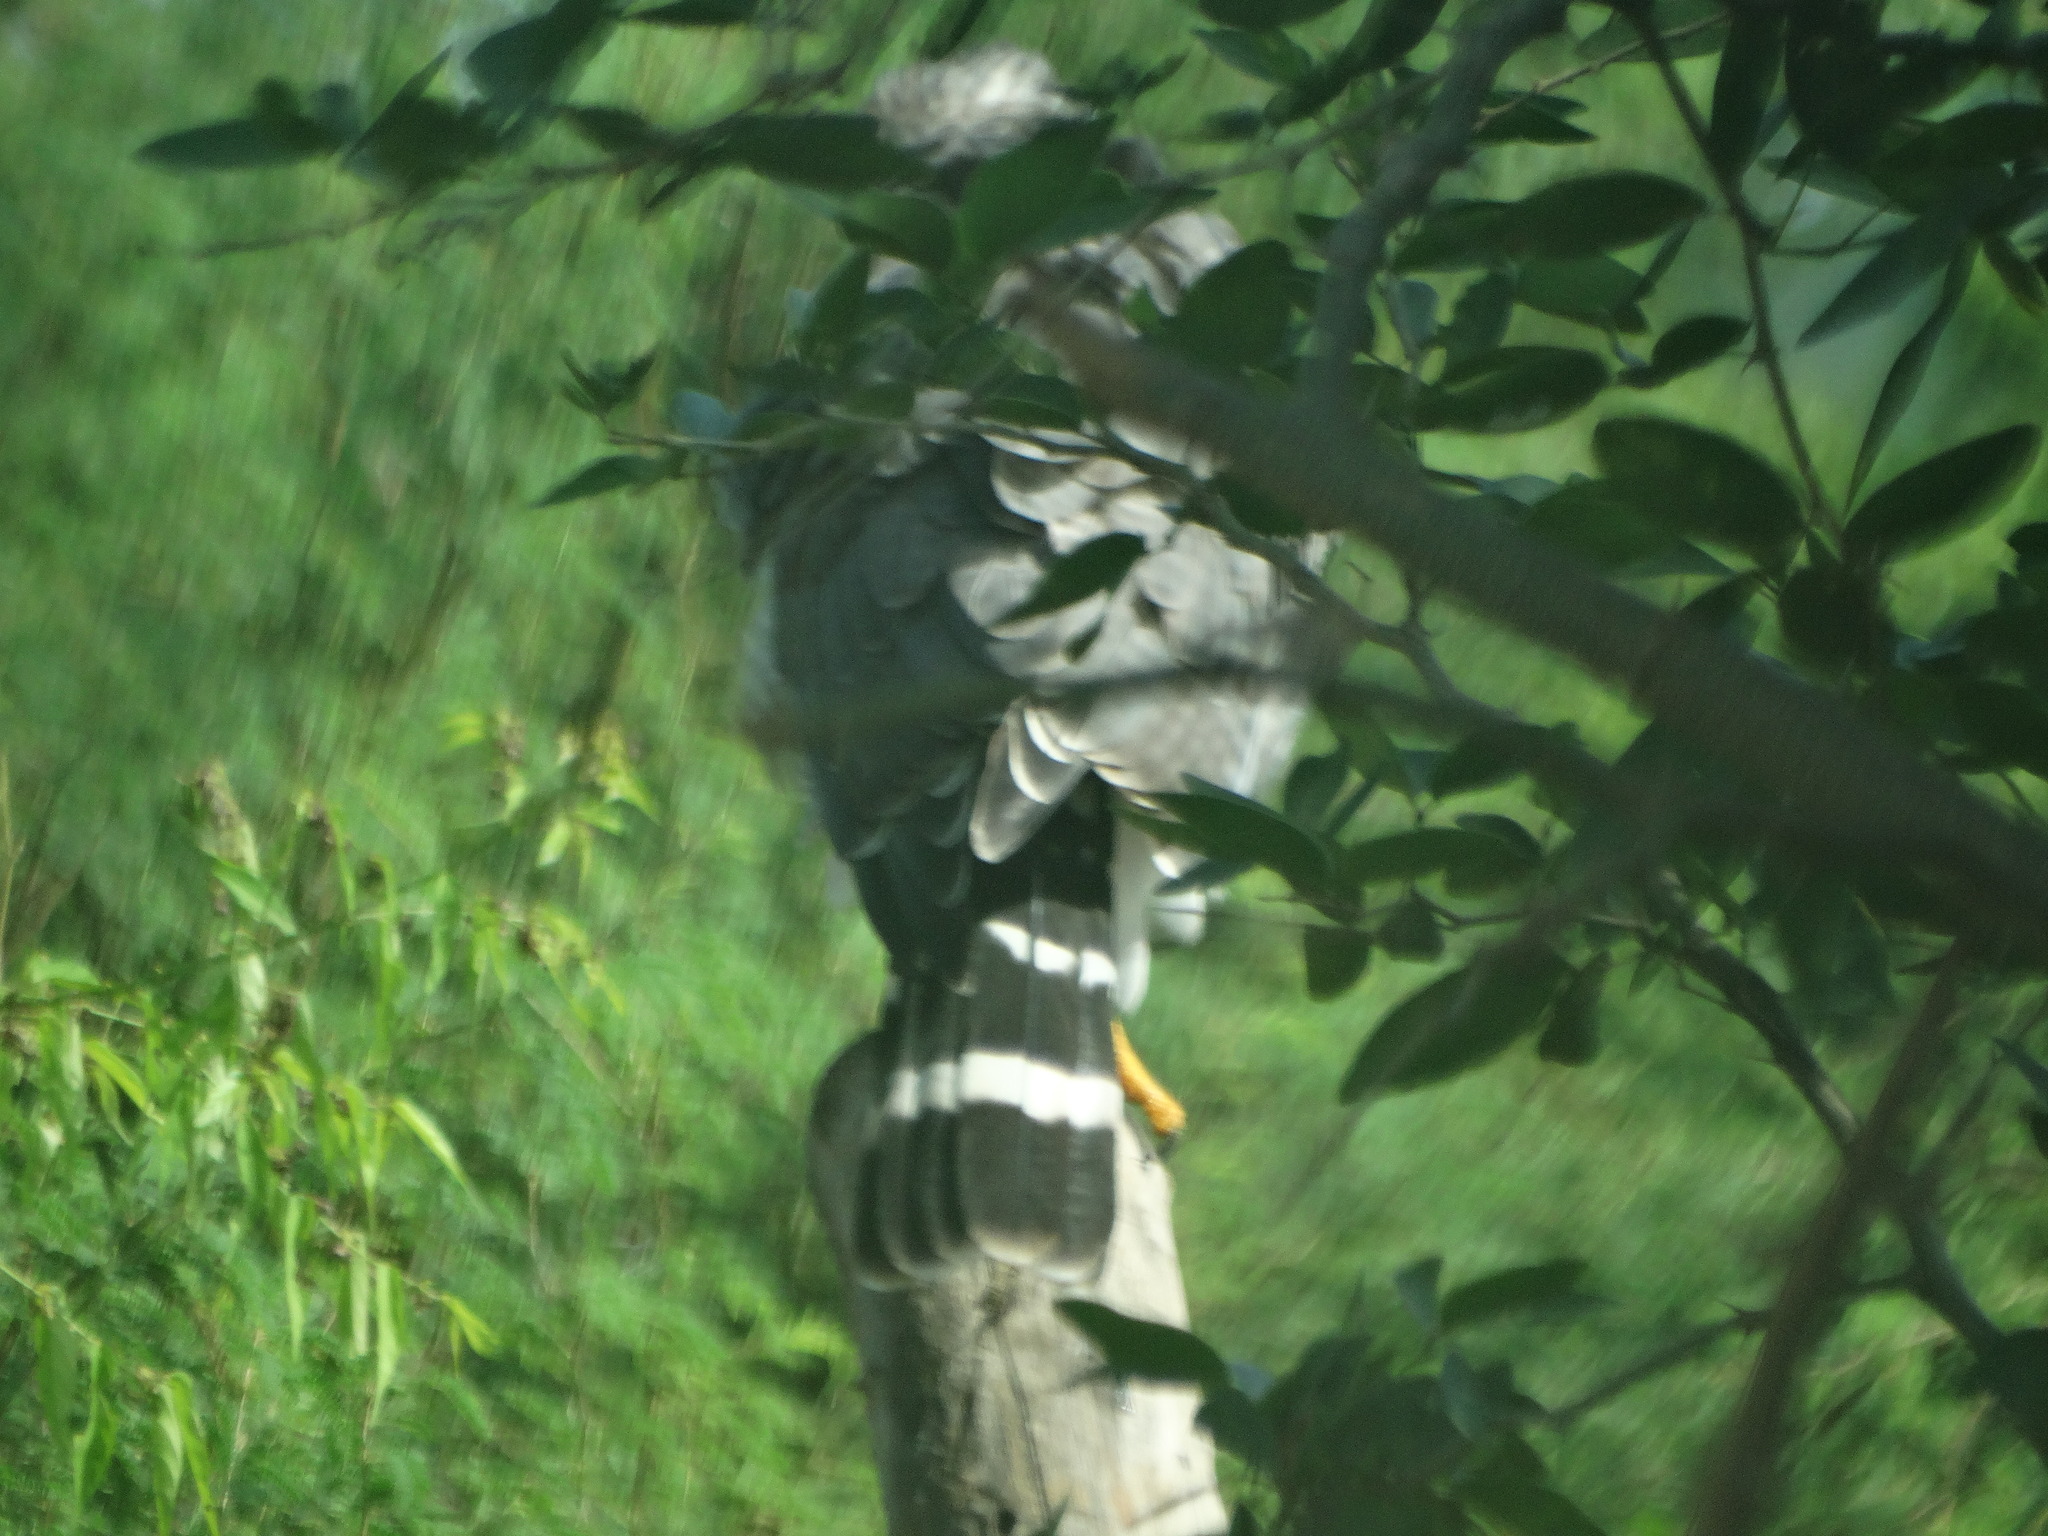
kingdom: Animalia
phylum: Chordata
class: Aves
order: Accipitriformes
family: Accipitridae
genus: Buteo
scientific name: Buteo nitidus
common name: Grey-lined hawk
